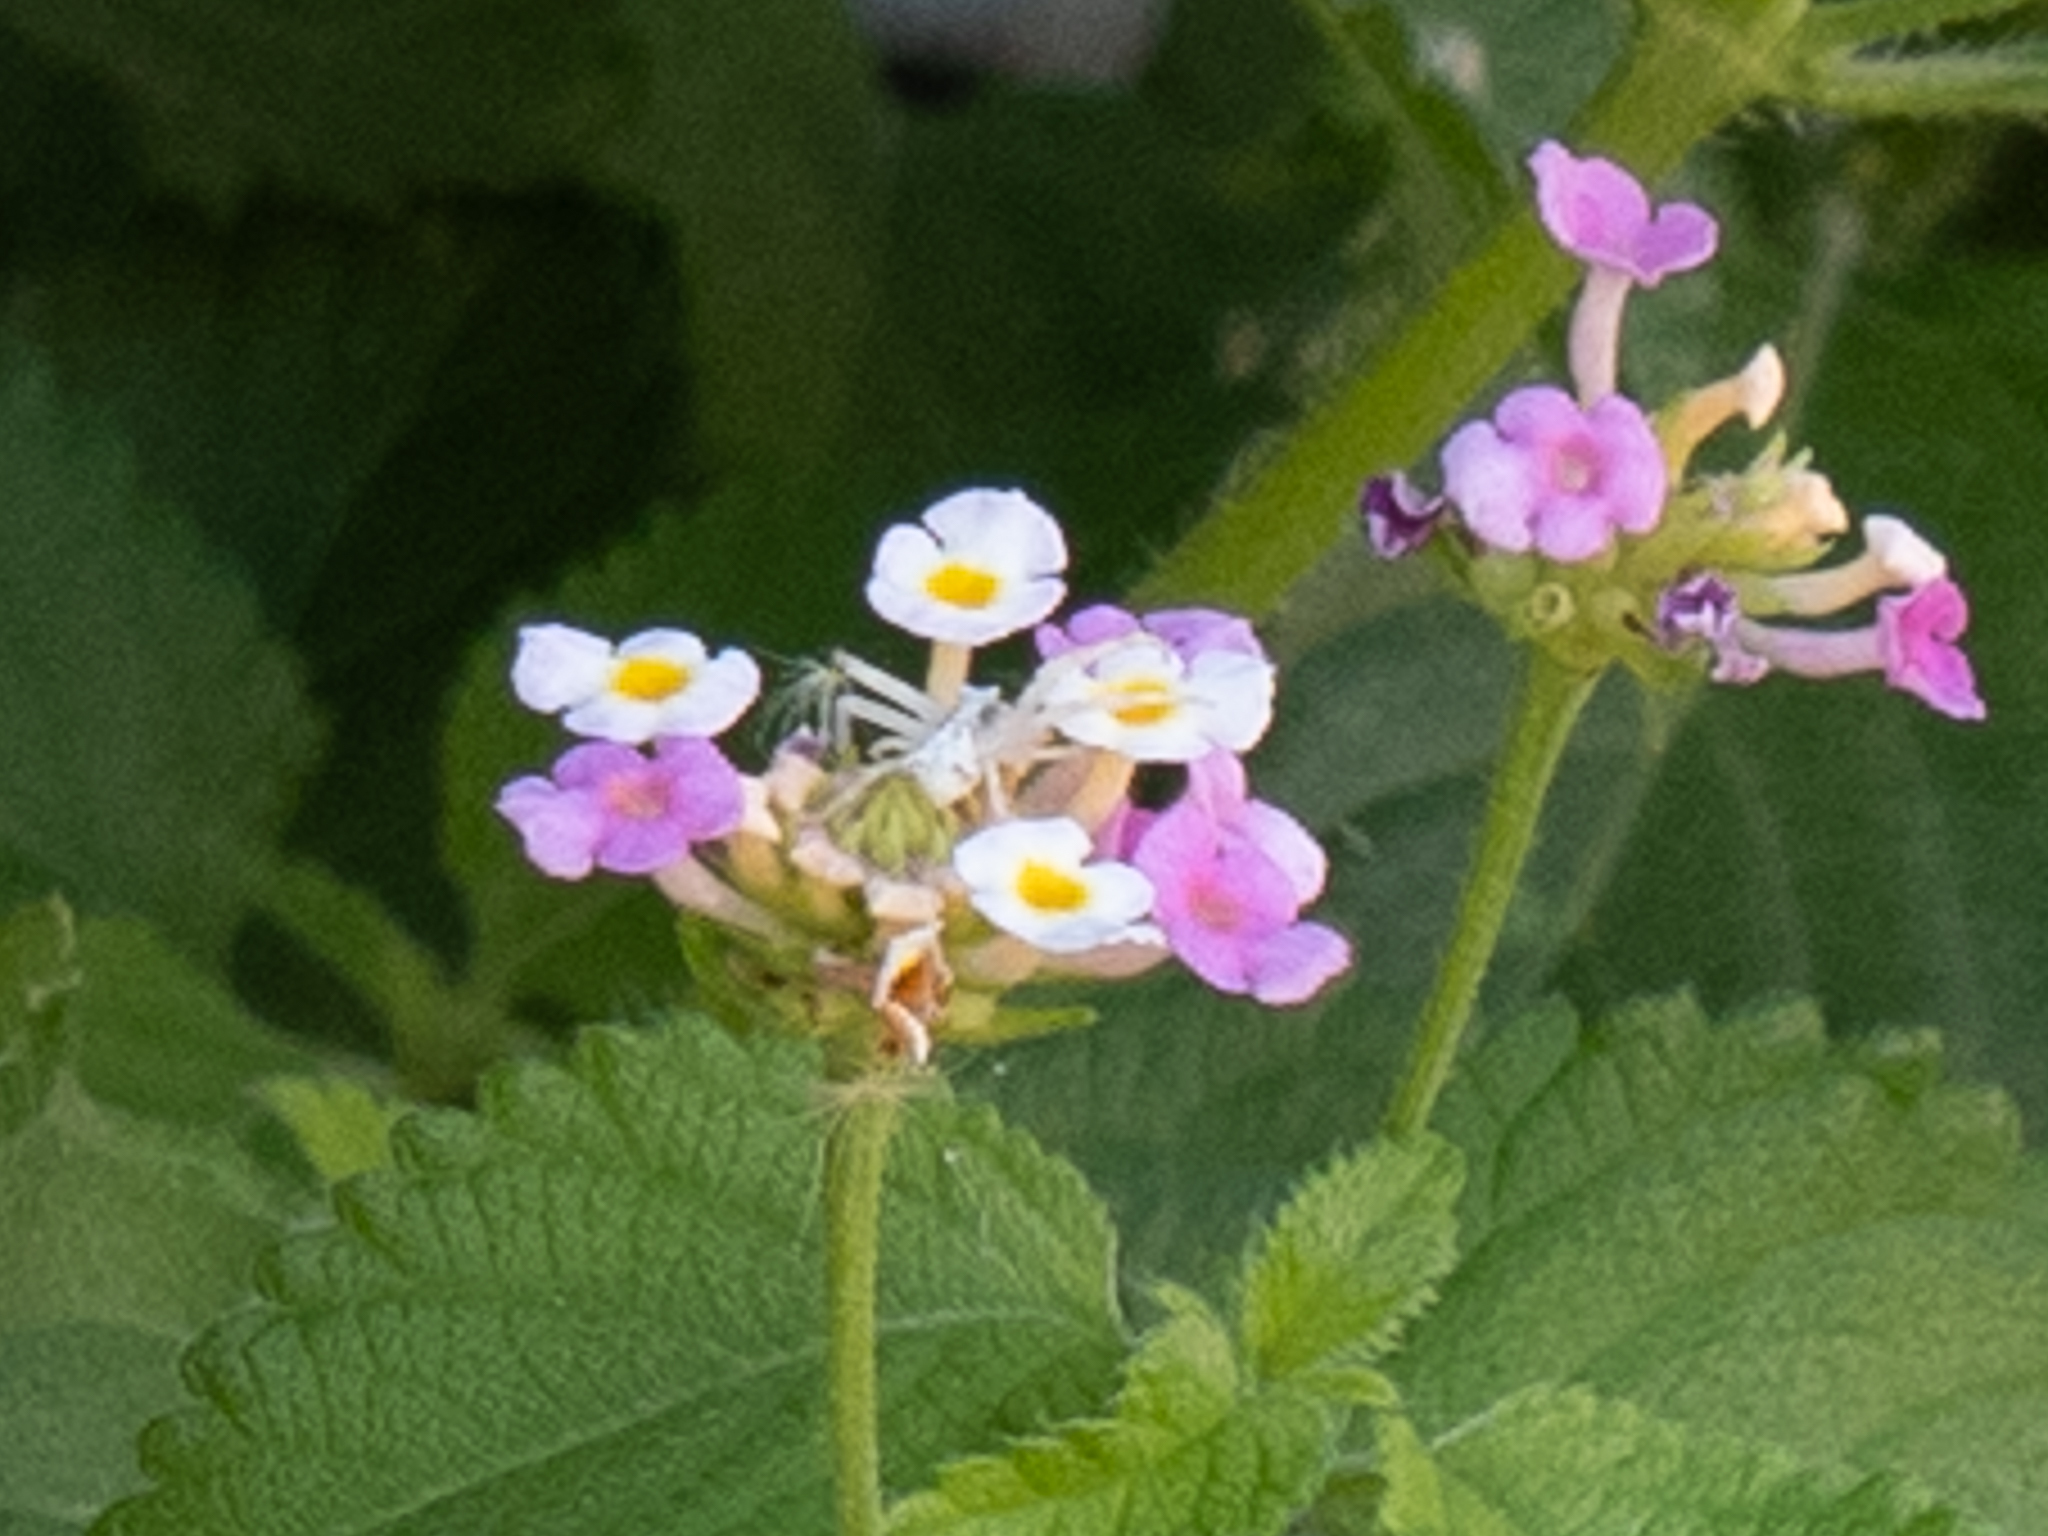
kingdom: Animalia
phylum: Arthropoda
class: Arachnida
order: Araneae
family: Thomisidae
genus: Thomisus
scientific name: Thomisus onustus
